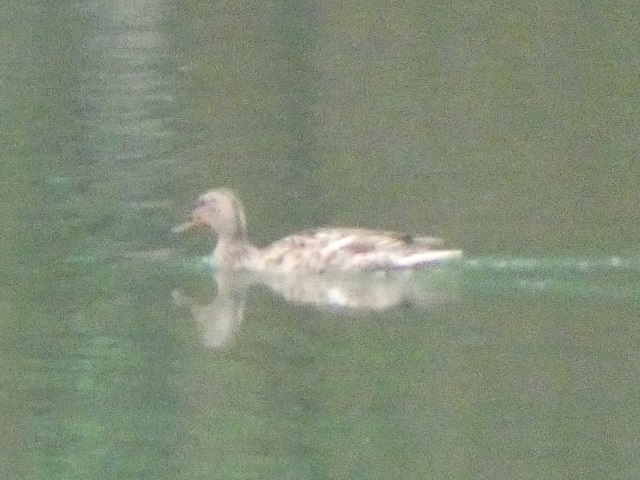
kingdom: Animalia
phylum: Chordata
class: Aves
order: Anseriformes
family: Anatidae
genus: Anas
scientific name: Anas platyrhynchos
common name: Mallard
